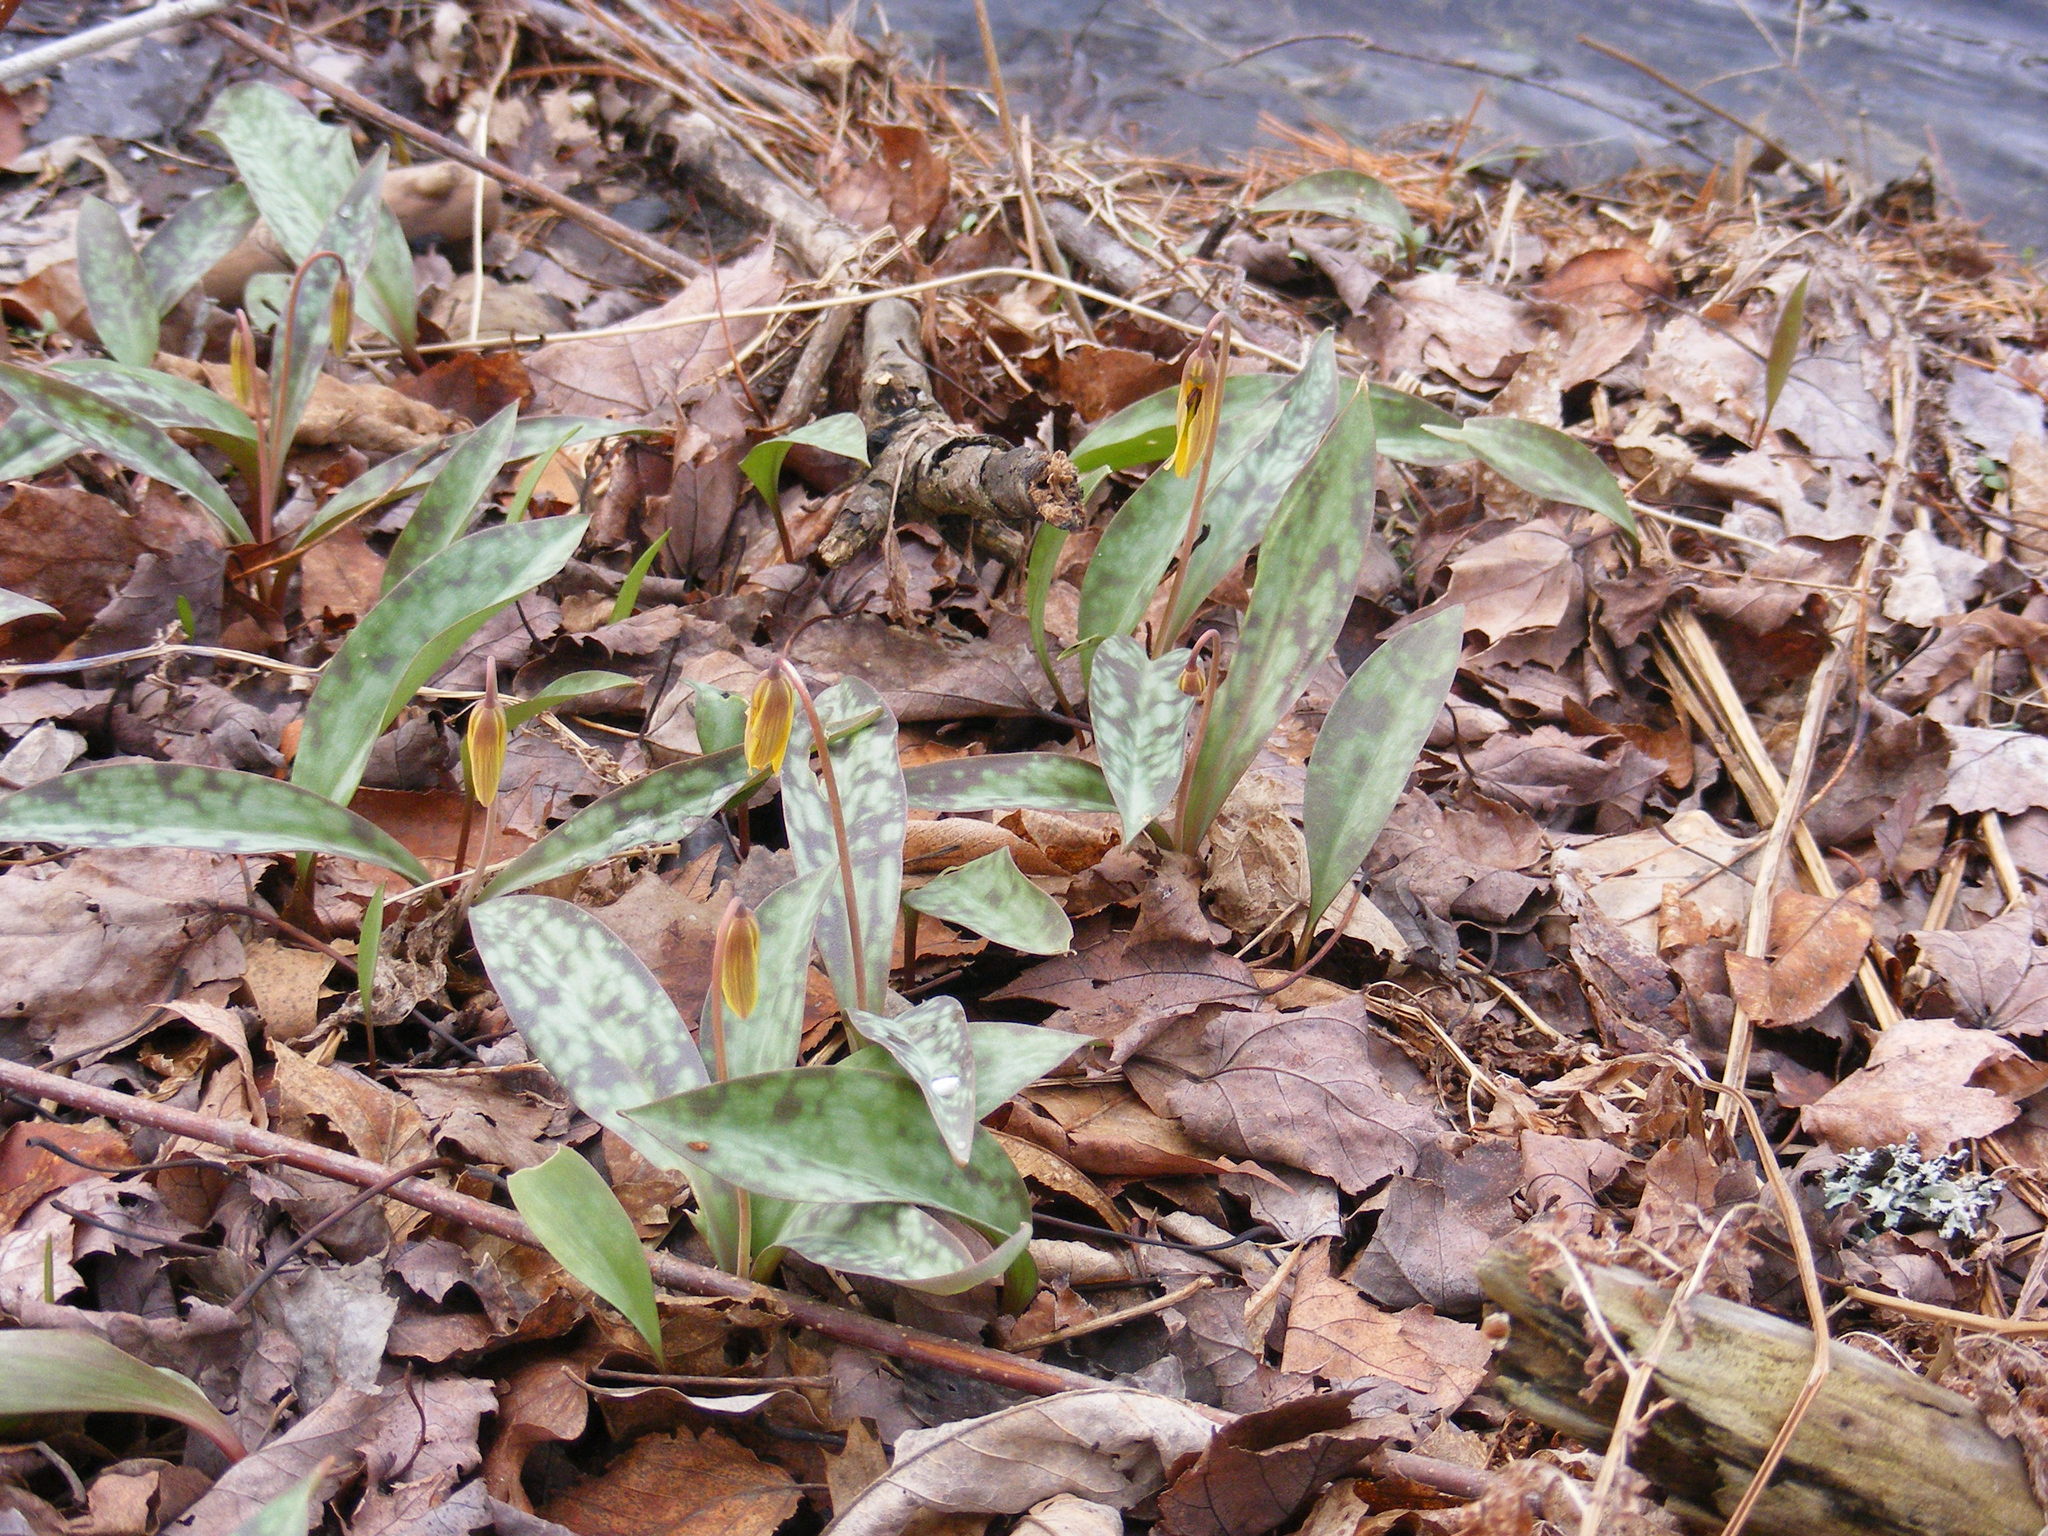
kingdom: Plantae
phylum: Tracheophyta
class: Liliopsida
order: Liliales
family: Liliaceae
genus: Erythronium
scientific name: Erythronium americanum
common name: Yellow adder's-tongue
